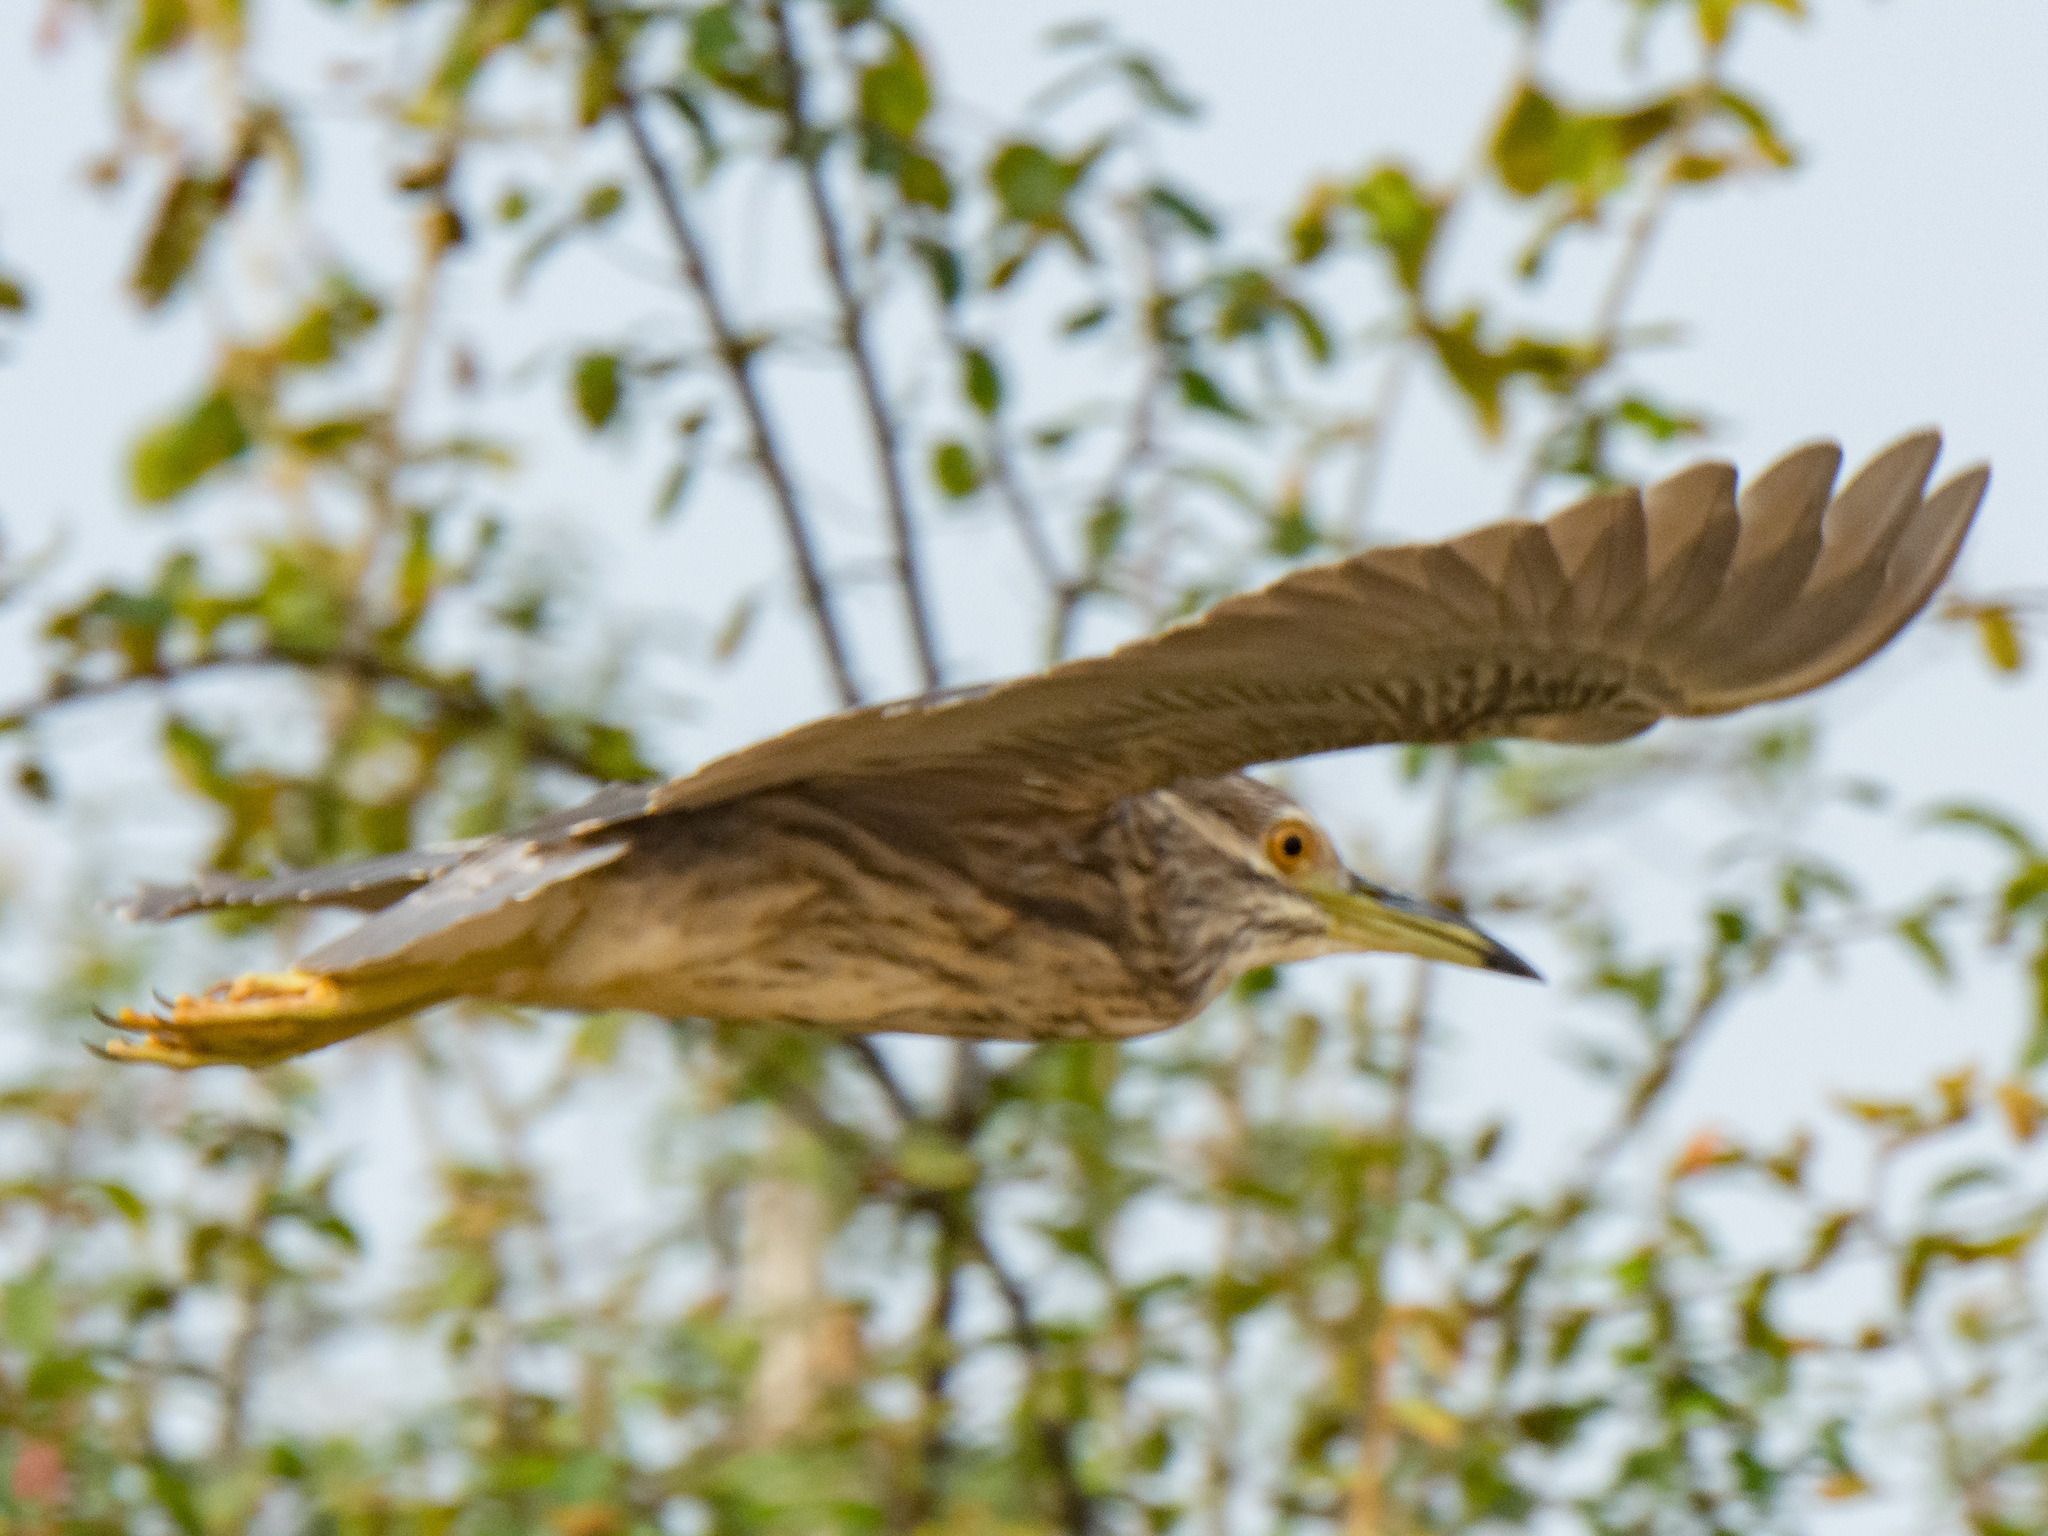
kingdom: Animalia
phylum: Chordata
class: Aves
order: Pelecaniformes
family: Ardeidae
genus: Nycticorax
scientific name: Nycticorax nycticorax
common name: Black-crowned night heron
